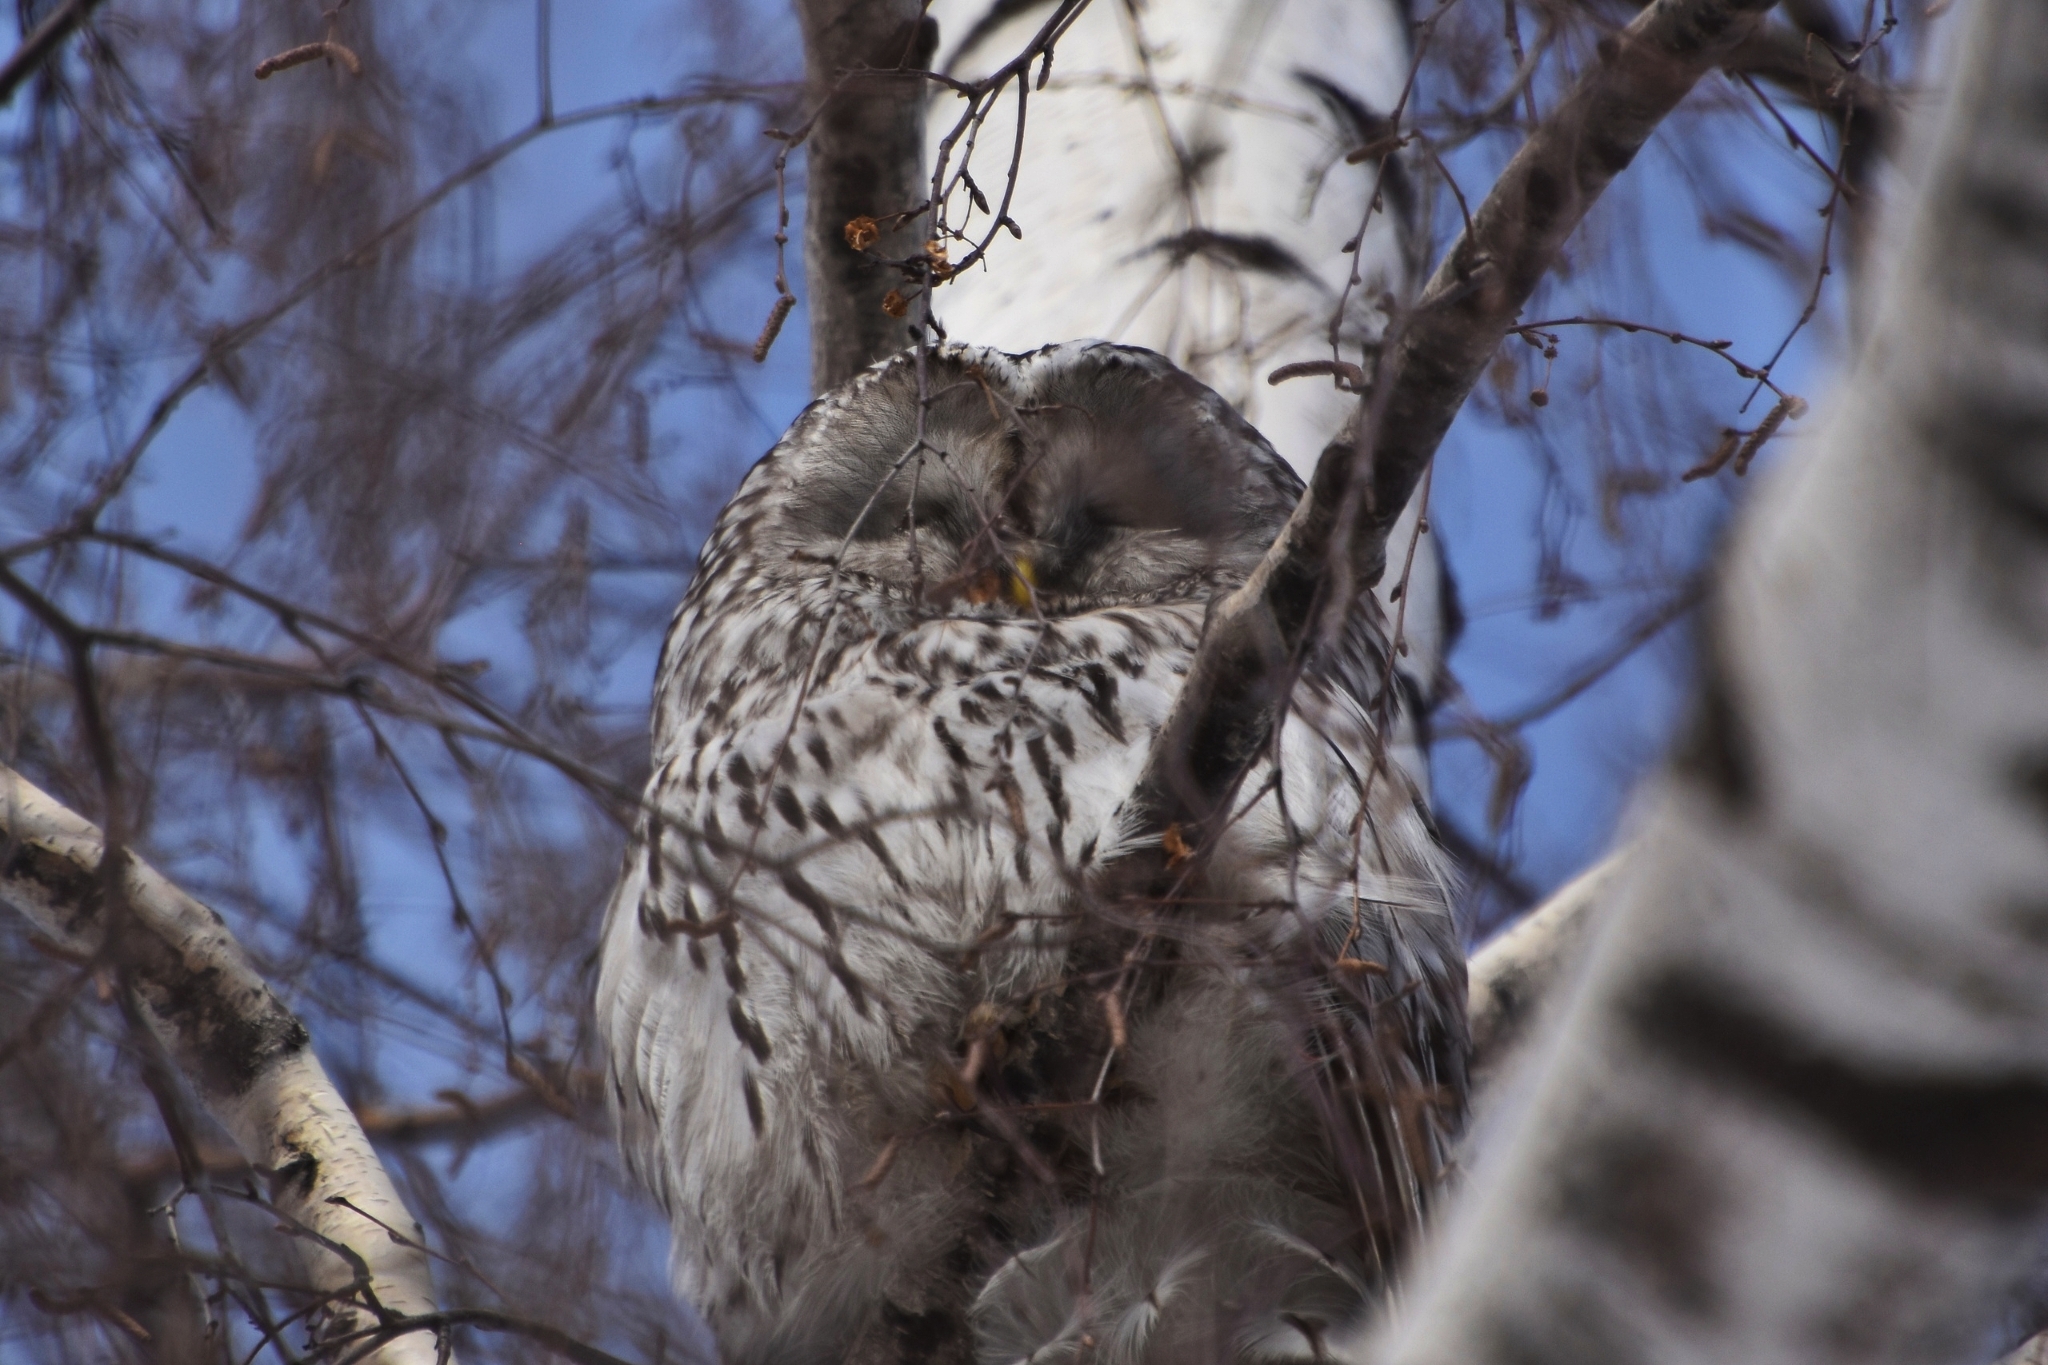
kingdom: Animalia
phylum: Chordata
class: Aves
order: Strigiformes
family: Strigidae
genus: Strix
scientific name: Strix uralensis
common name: Ural owl
